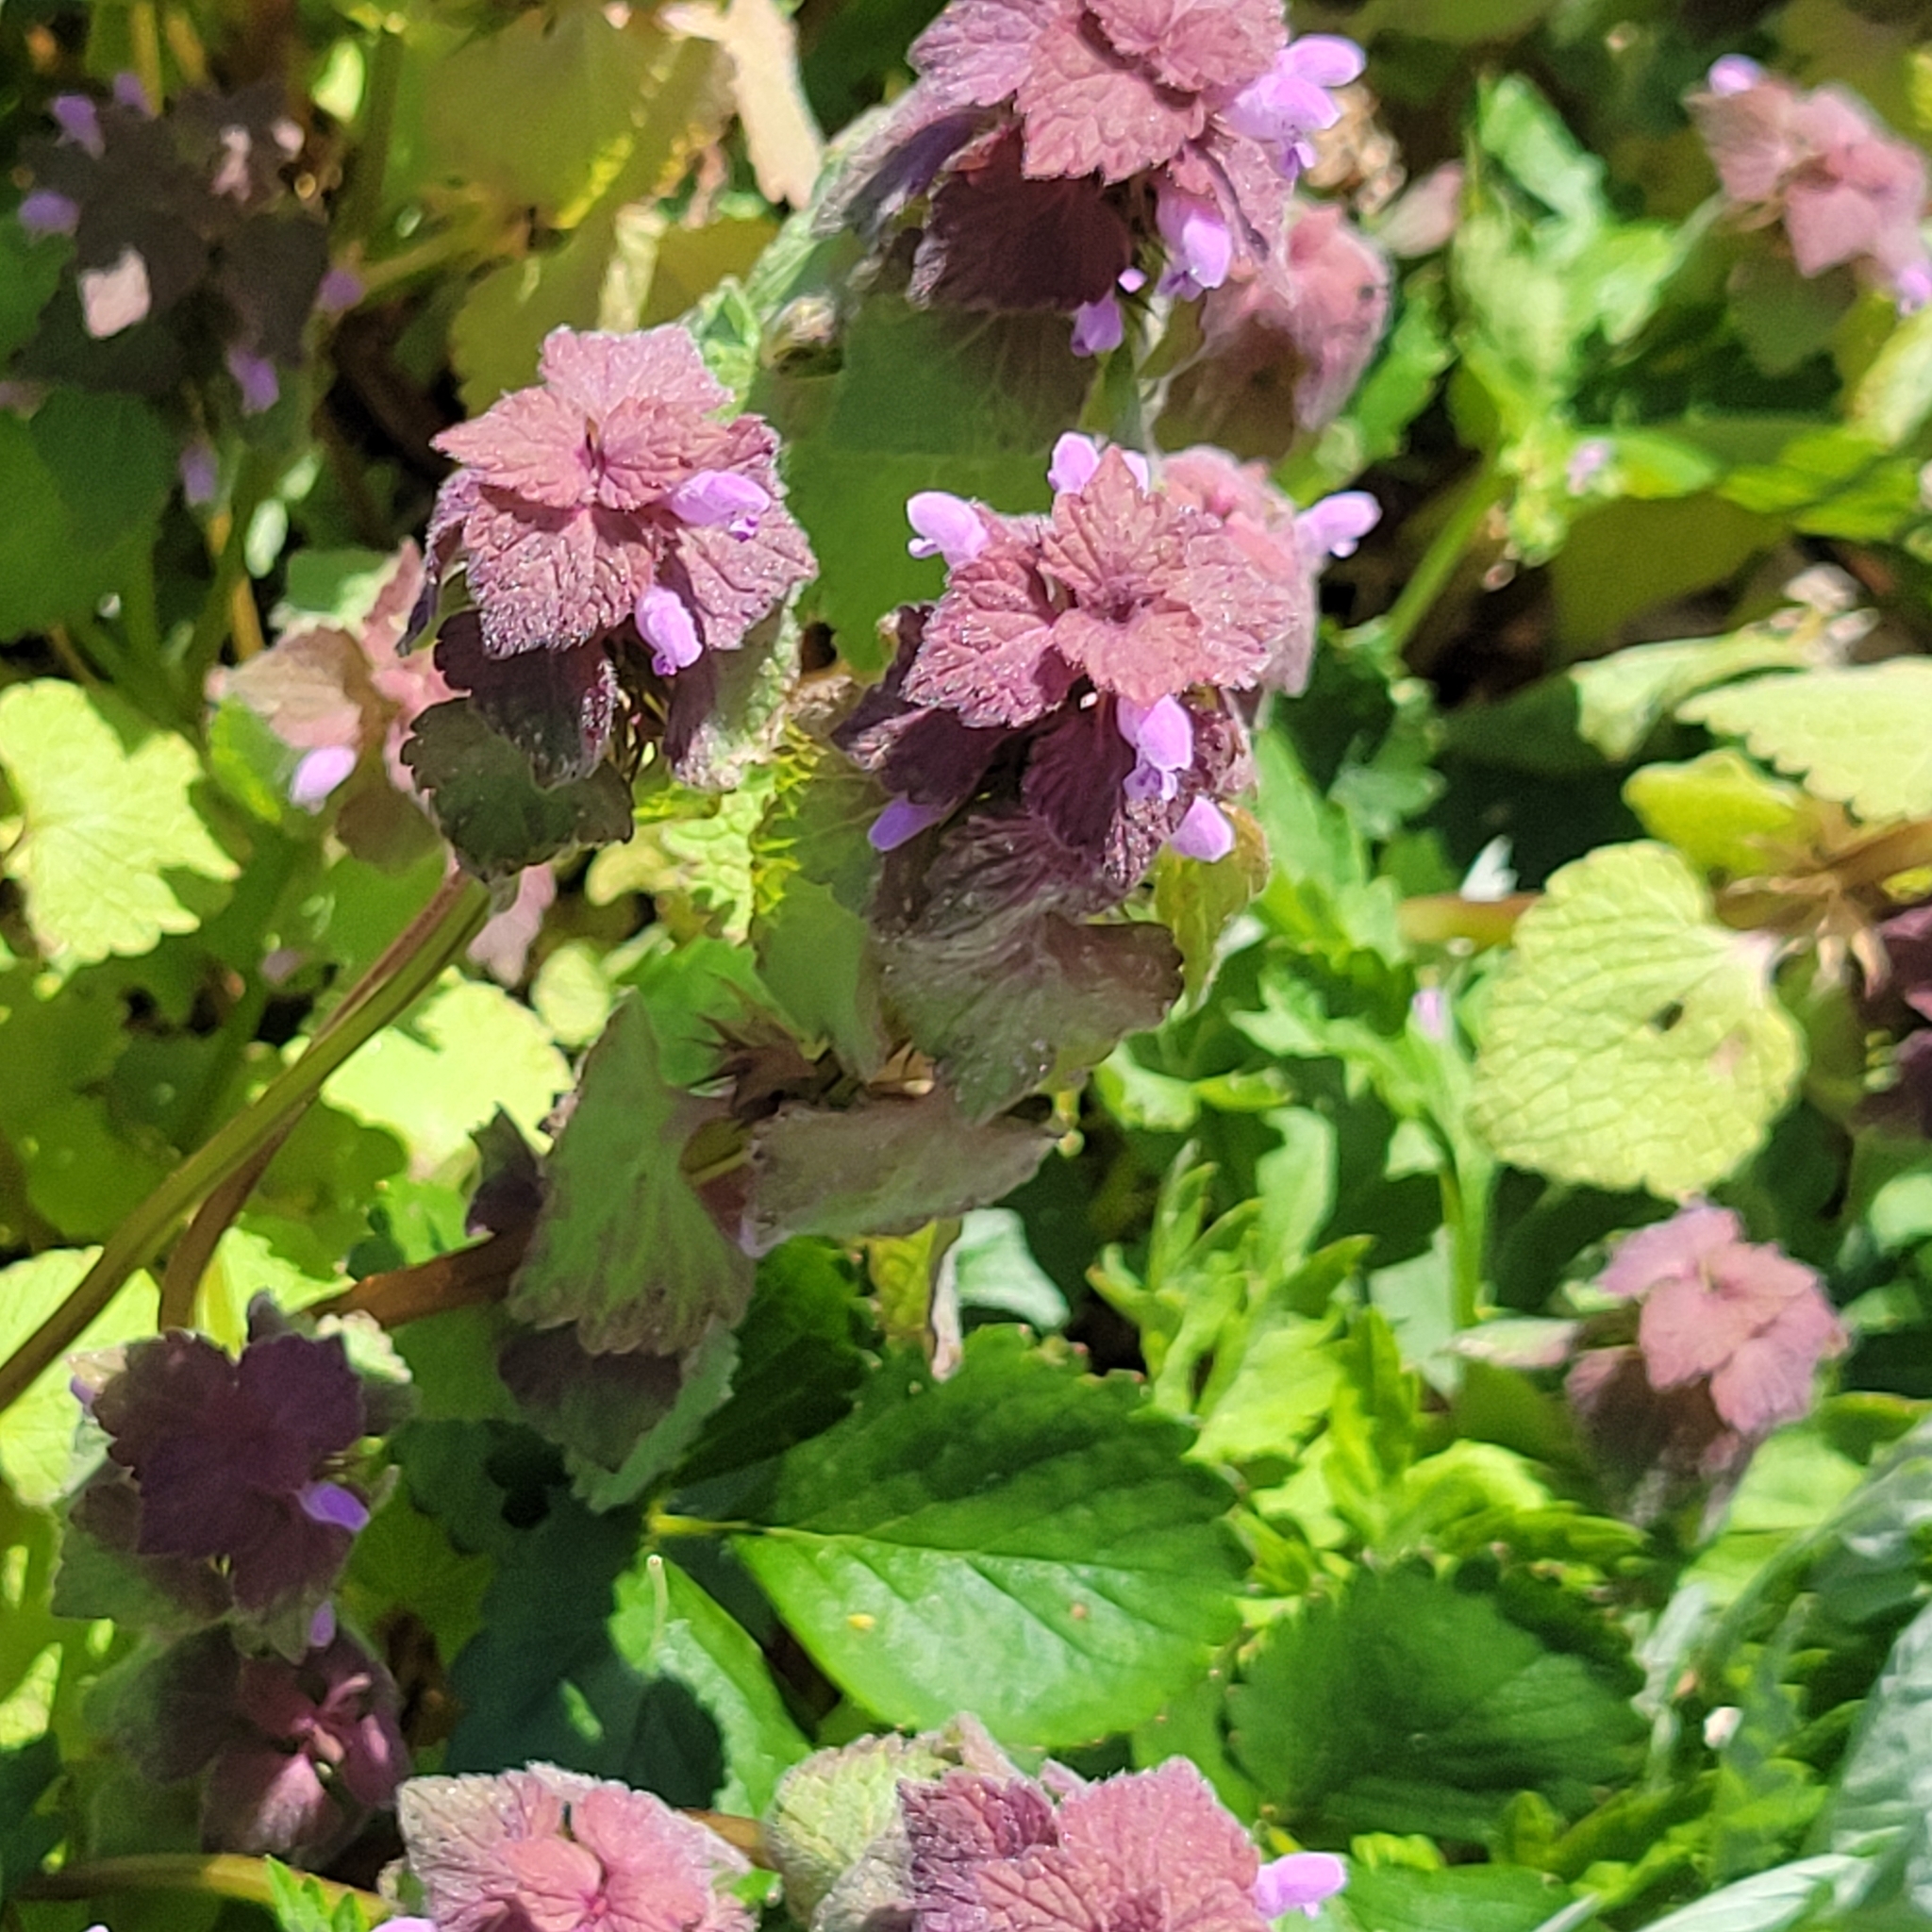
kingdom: Plantae
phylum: Tracheophyta
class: Magnoliopsida
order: Lamiales
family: Lamiaceae
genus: Lamium
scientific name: Lamium purpureum
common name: Red dead-nettle
